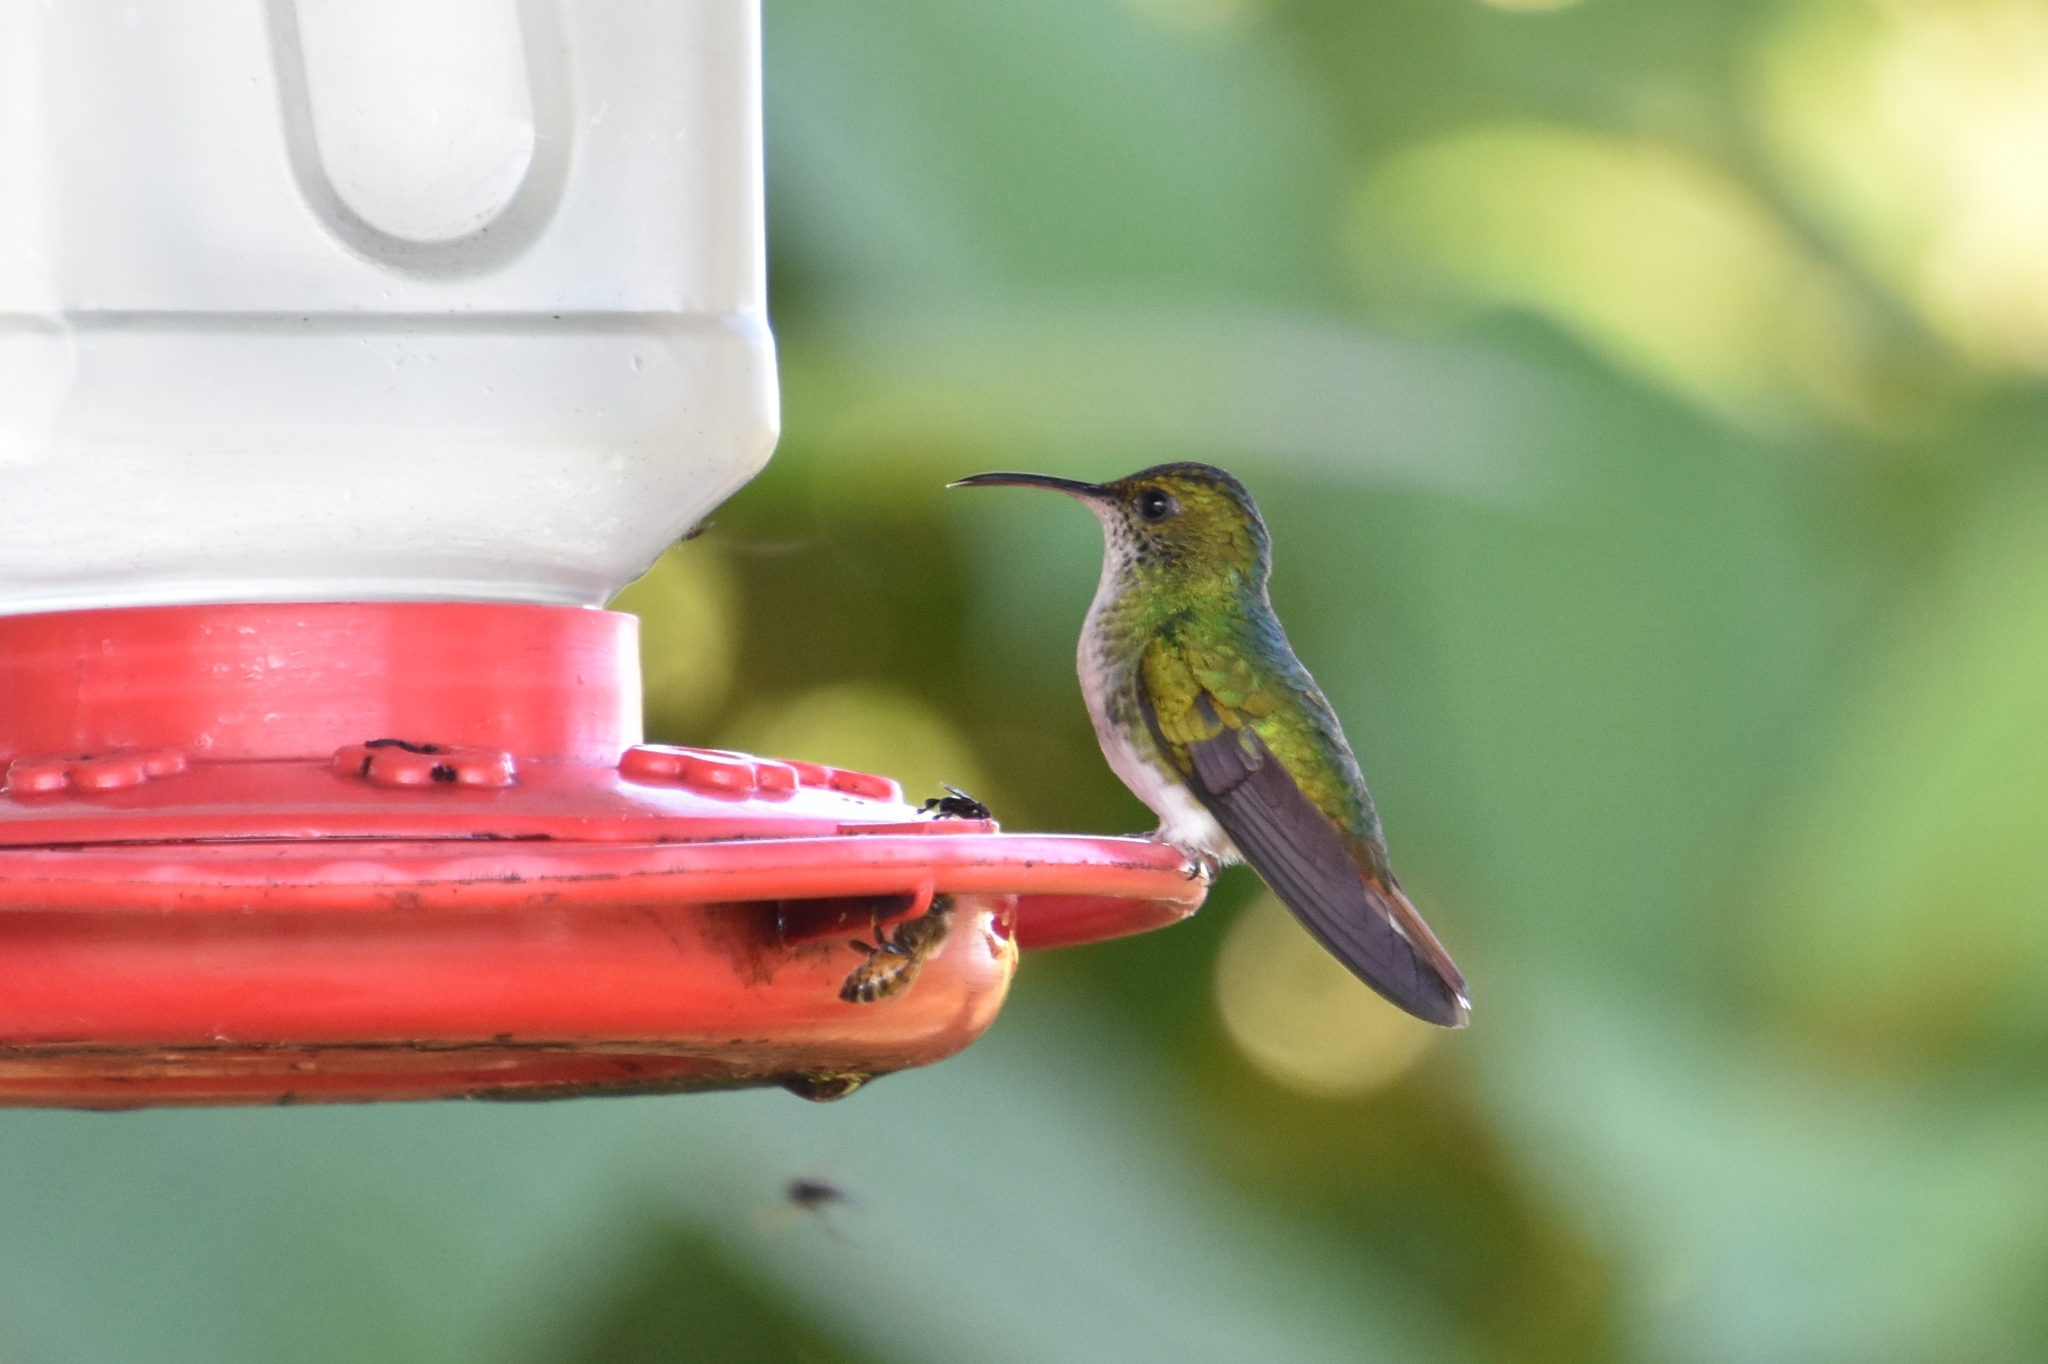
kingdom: Animalia
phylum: Chordata
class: Aves
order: Apodiformes
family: Trochilidae
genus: Microchera
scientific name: Microchera cupreiceps
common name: Coppery-headed emerald
